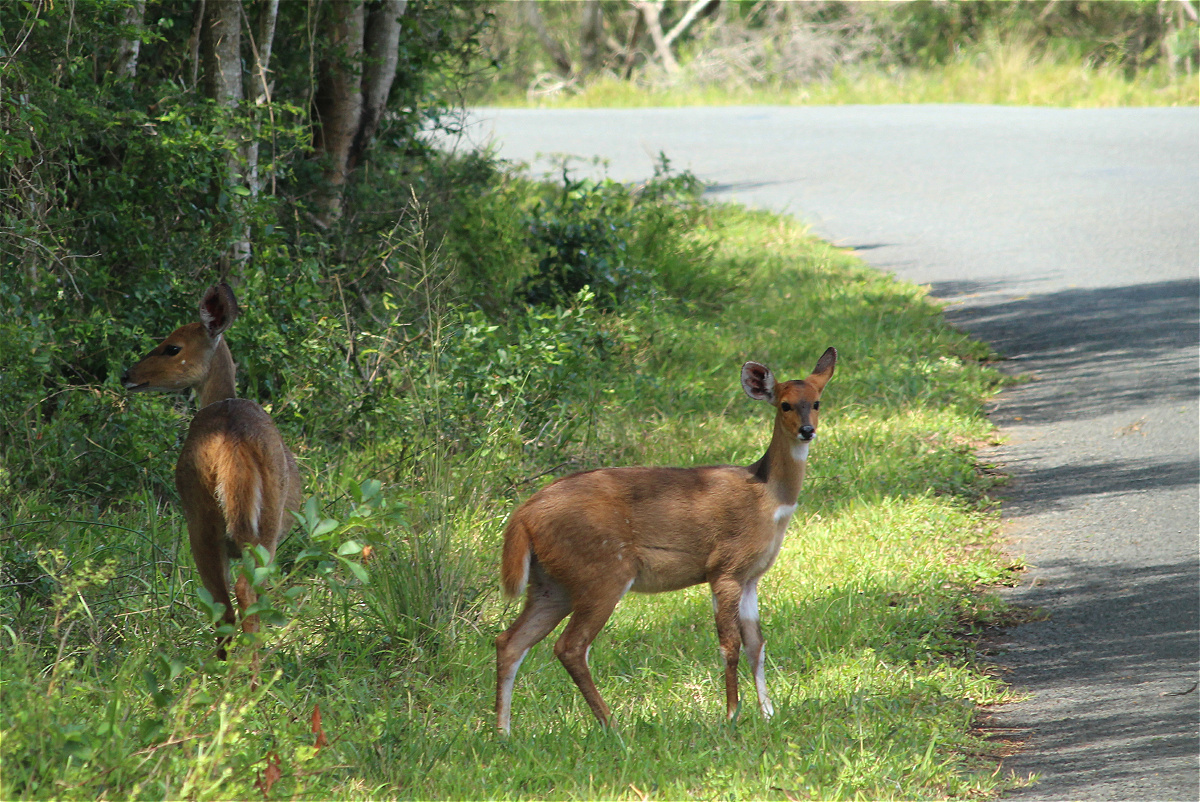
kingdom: Animalia
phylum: Chordata
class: Mammalia
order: Artiodactyla
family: Bovidae
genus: Tragelaphus
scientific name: Tragelaphus scriptus
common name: Bushbuck
